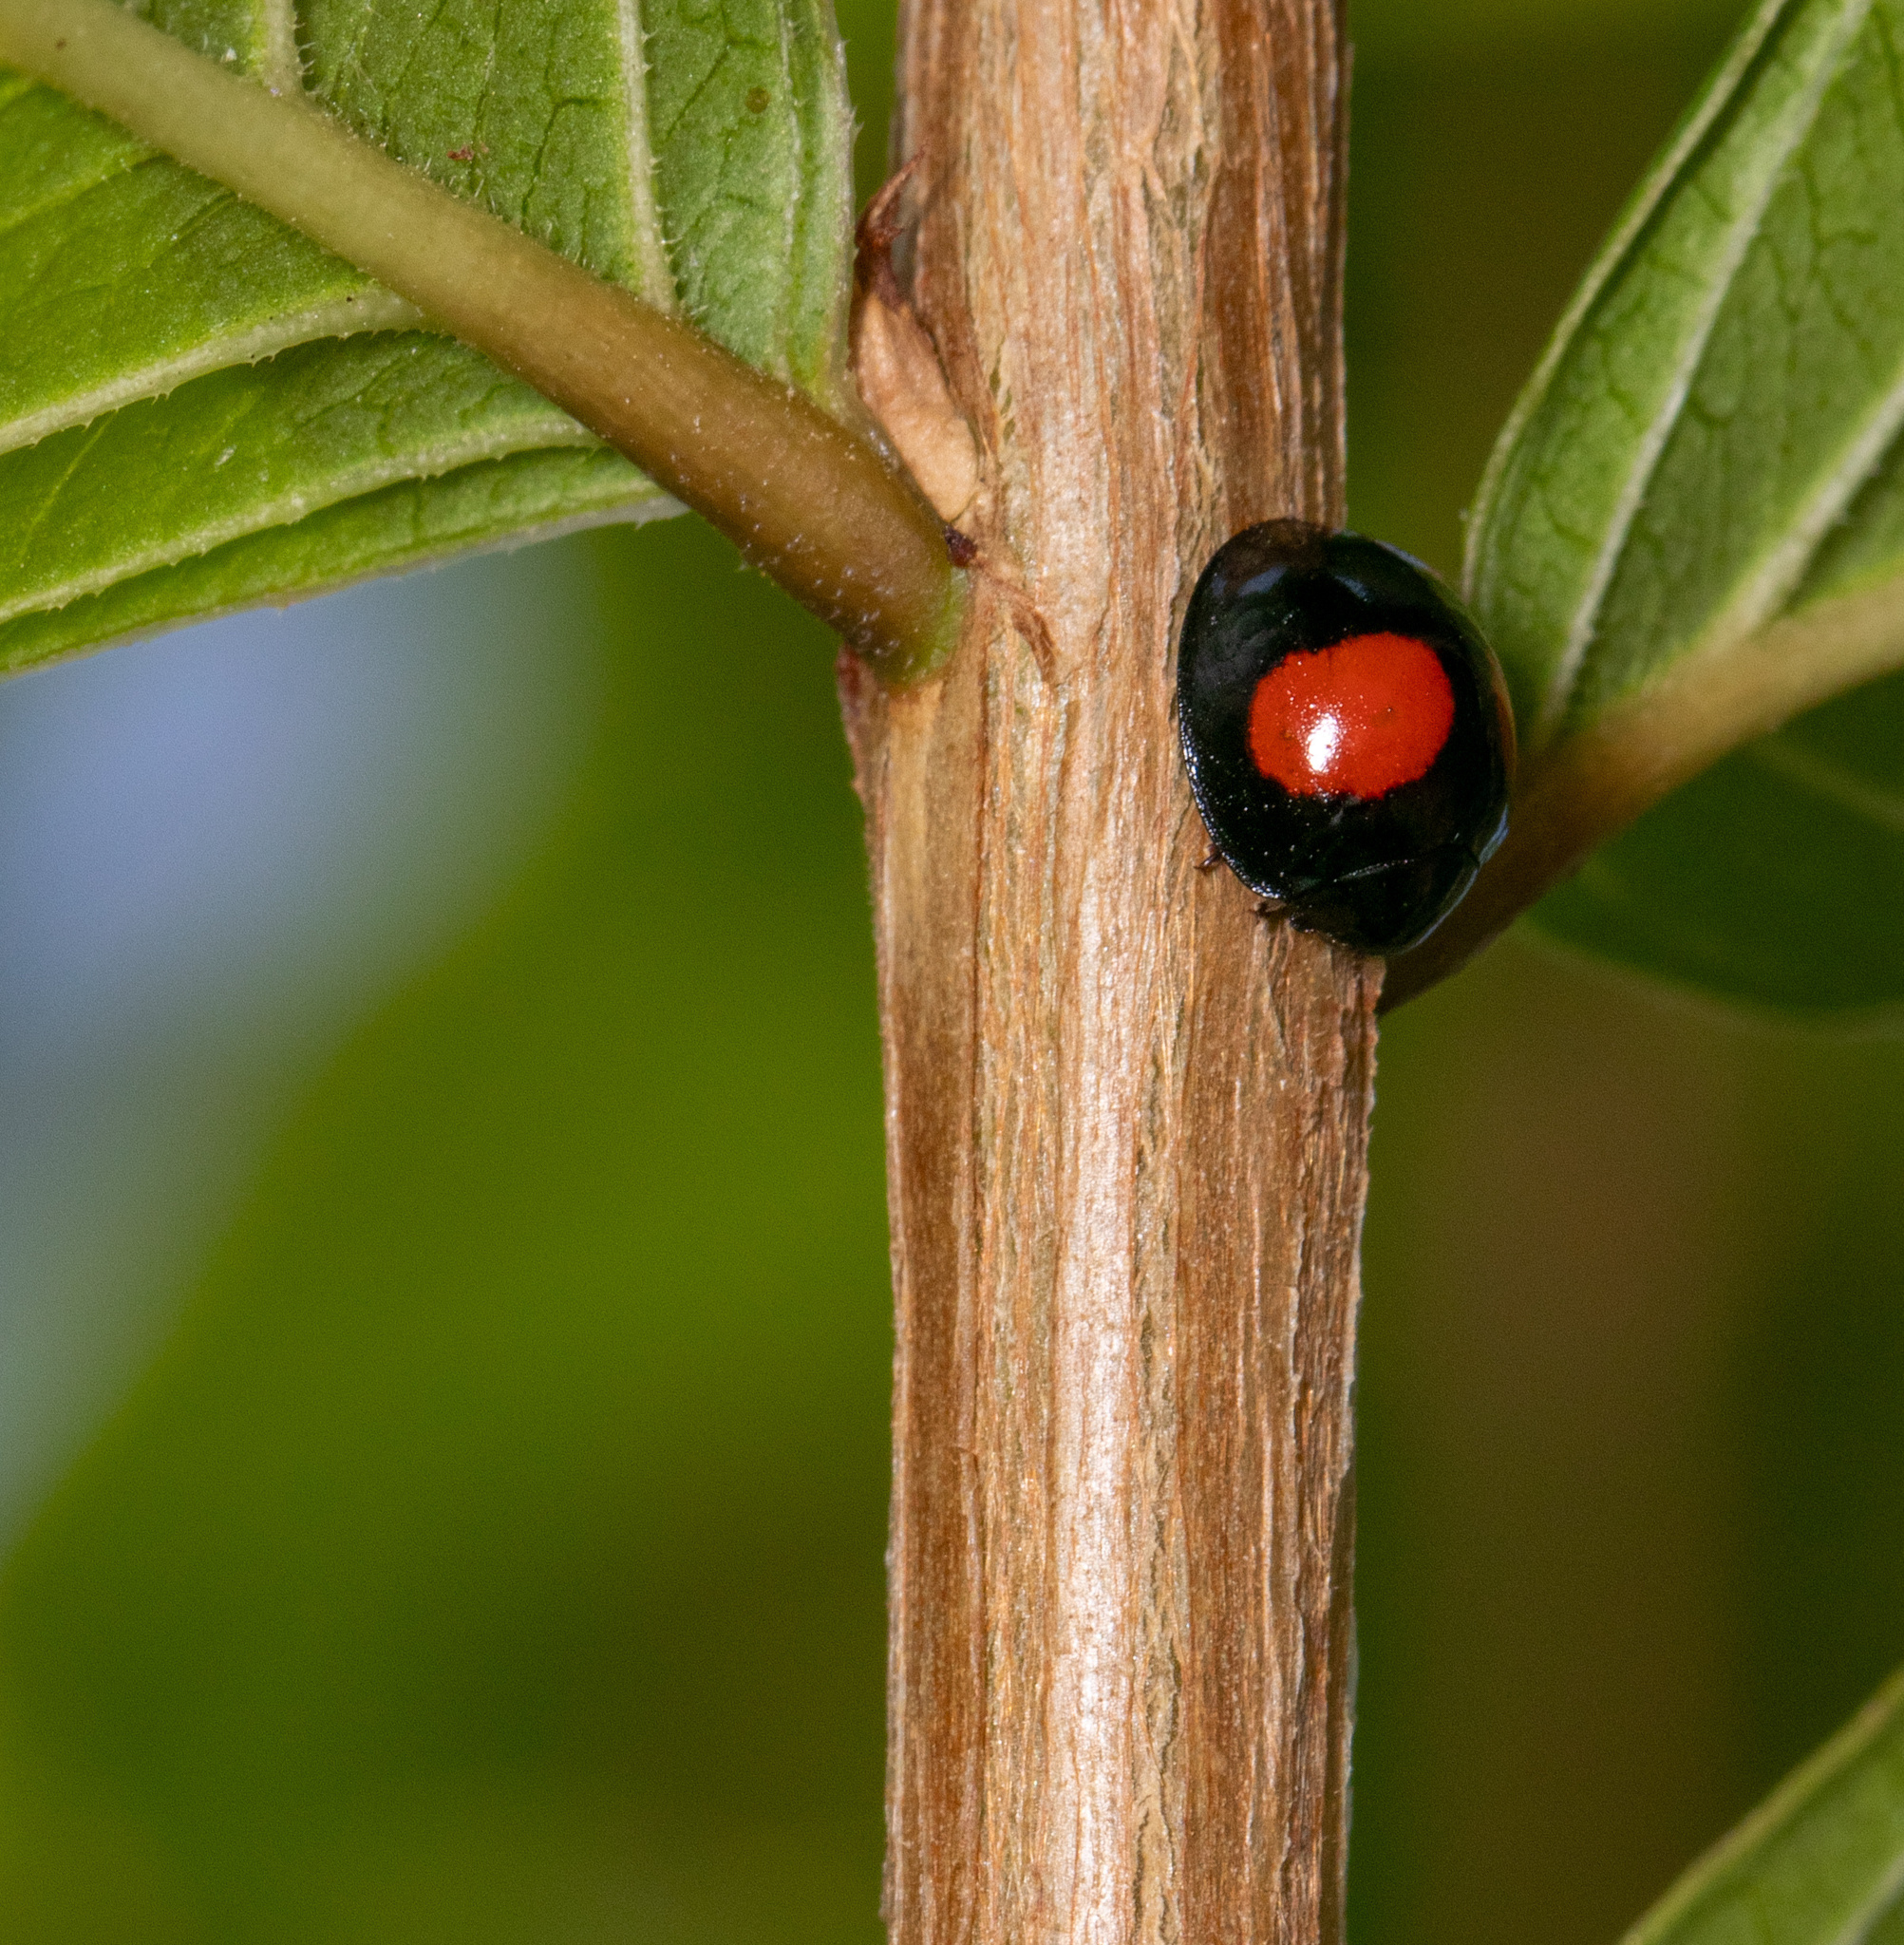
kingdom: Animalia
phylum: Arthropoda
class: Insecta
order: Coleoptera
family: Coccinellidae
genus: Chilocorus
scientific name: Chilocorus cacti
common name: Cactus lady beetle
